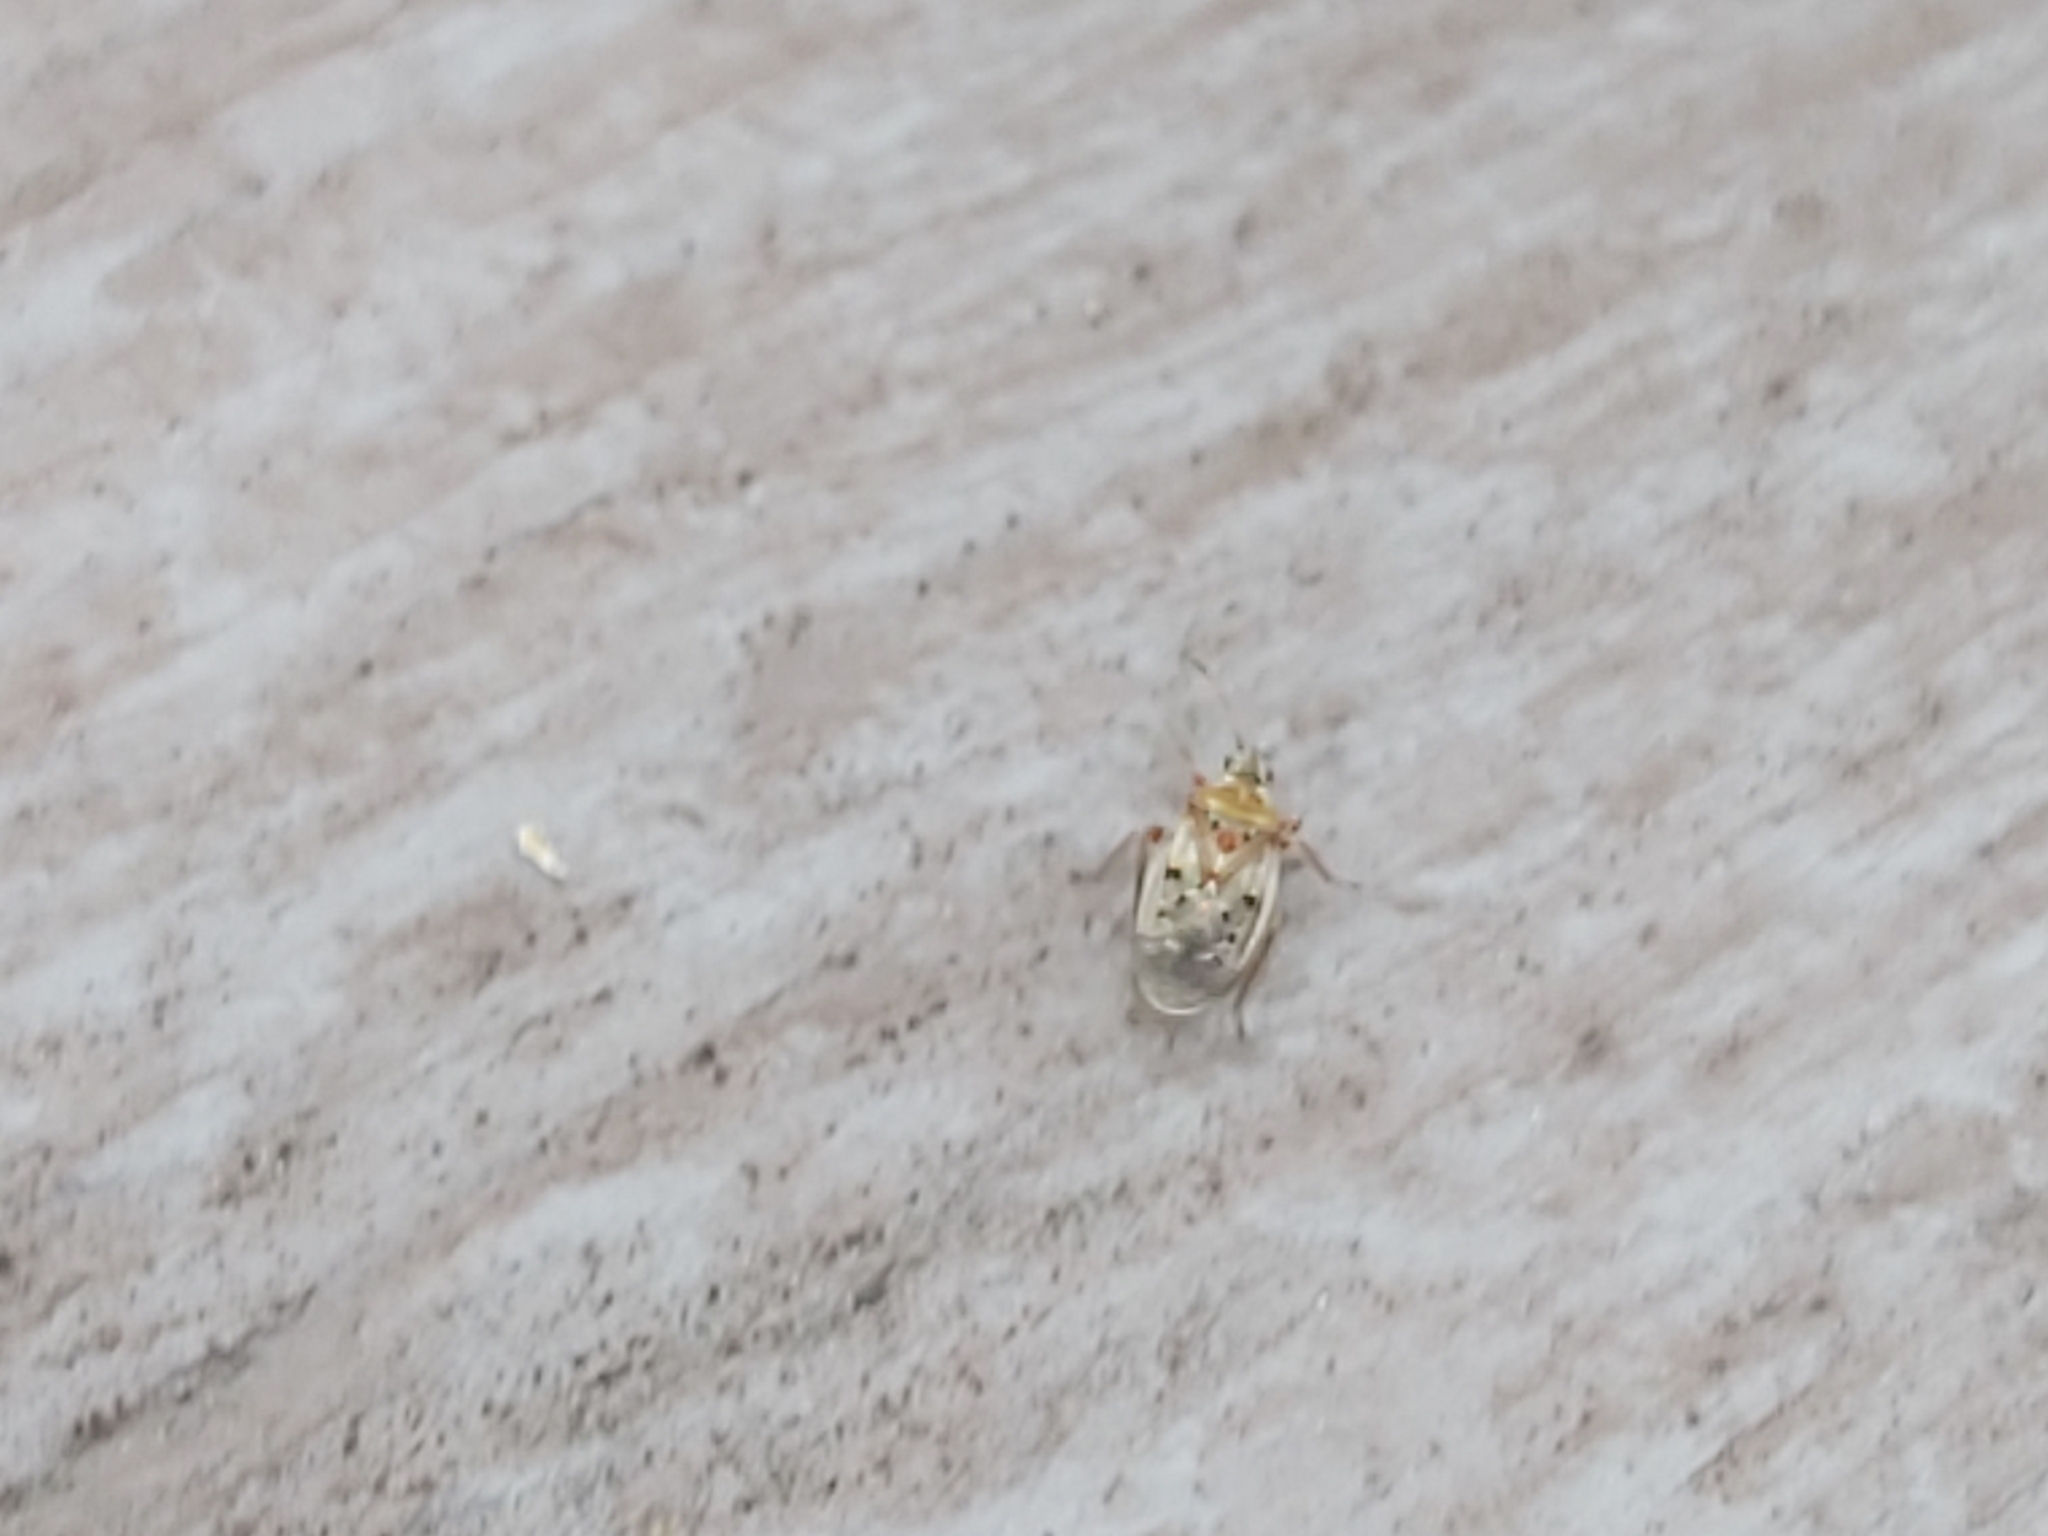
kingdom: Animalia
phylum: Arthropoda
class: Insecta
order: Hemiptera
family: Lygaeidae
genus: Kleidocerys
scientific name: Kleidocerys resedae
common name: Birch catkin bug
